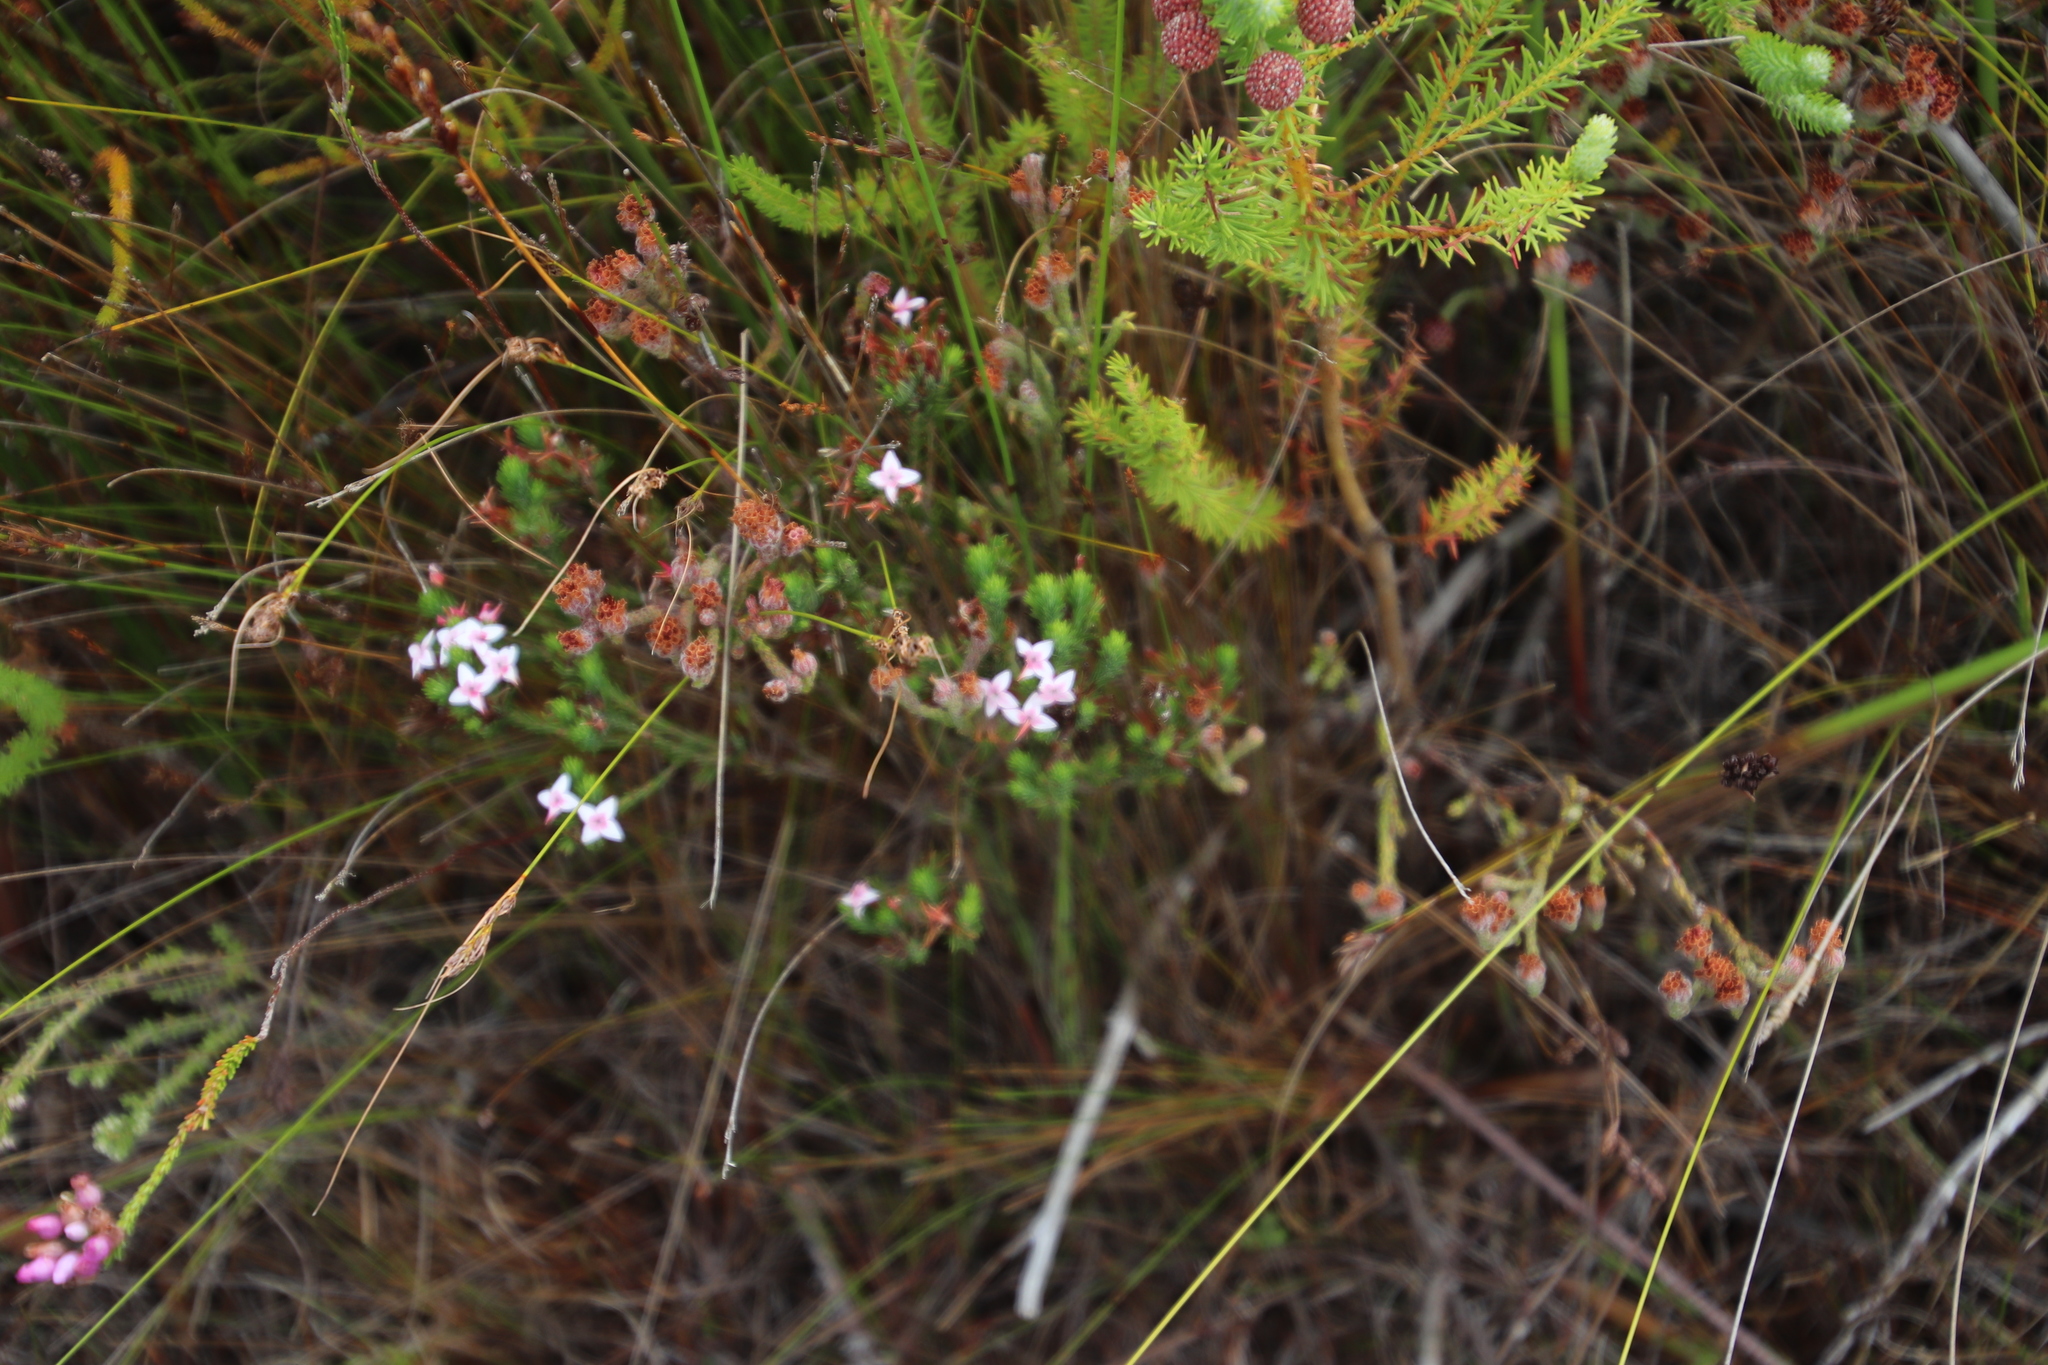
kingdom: Plantae
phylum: Tracheophyta
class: Magnoliopsida
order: Ericales
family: Ericaceae
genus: Erica
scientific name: Erica fastigiata
